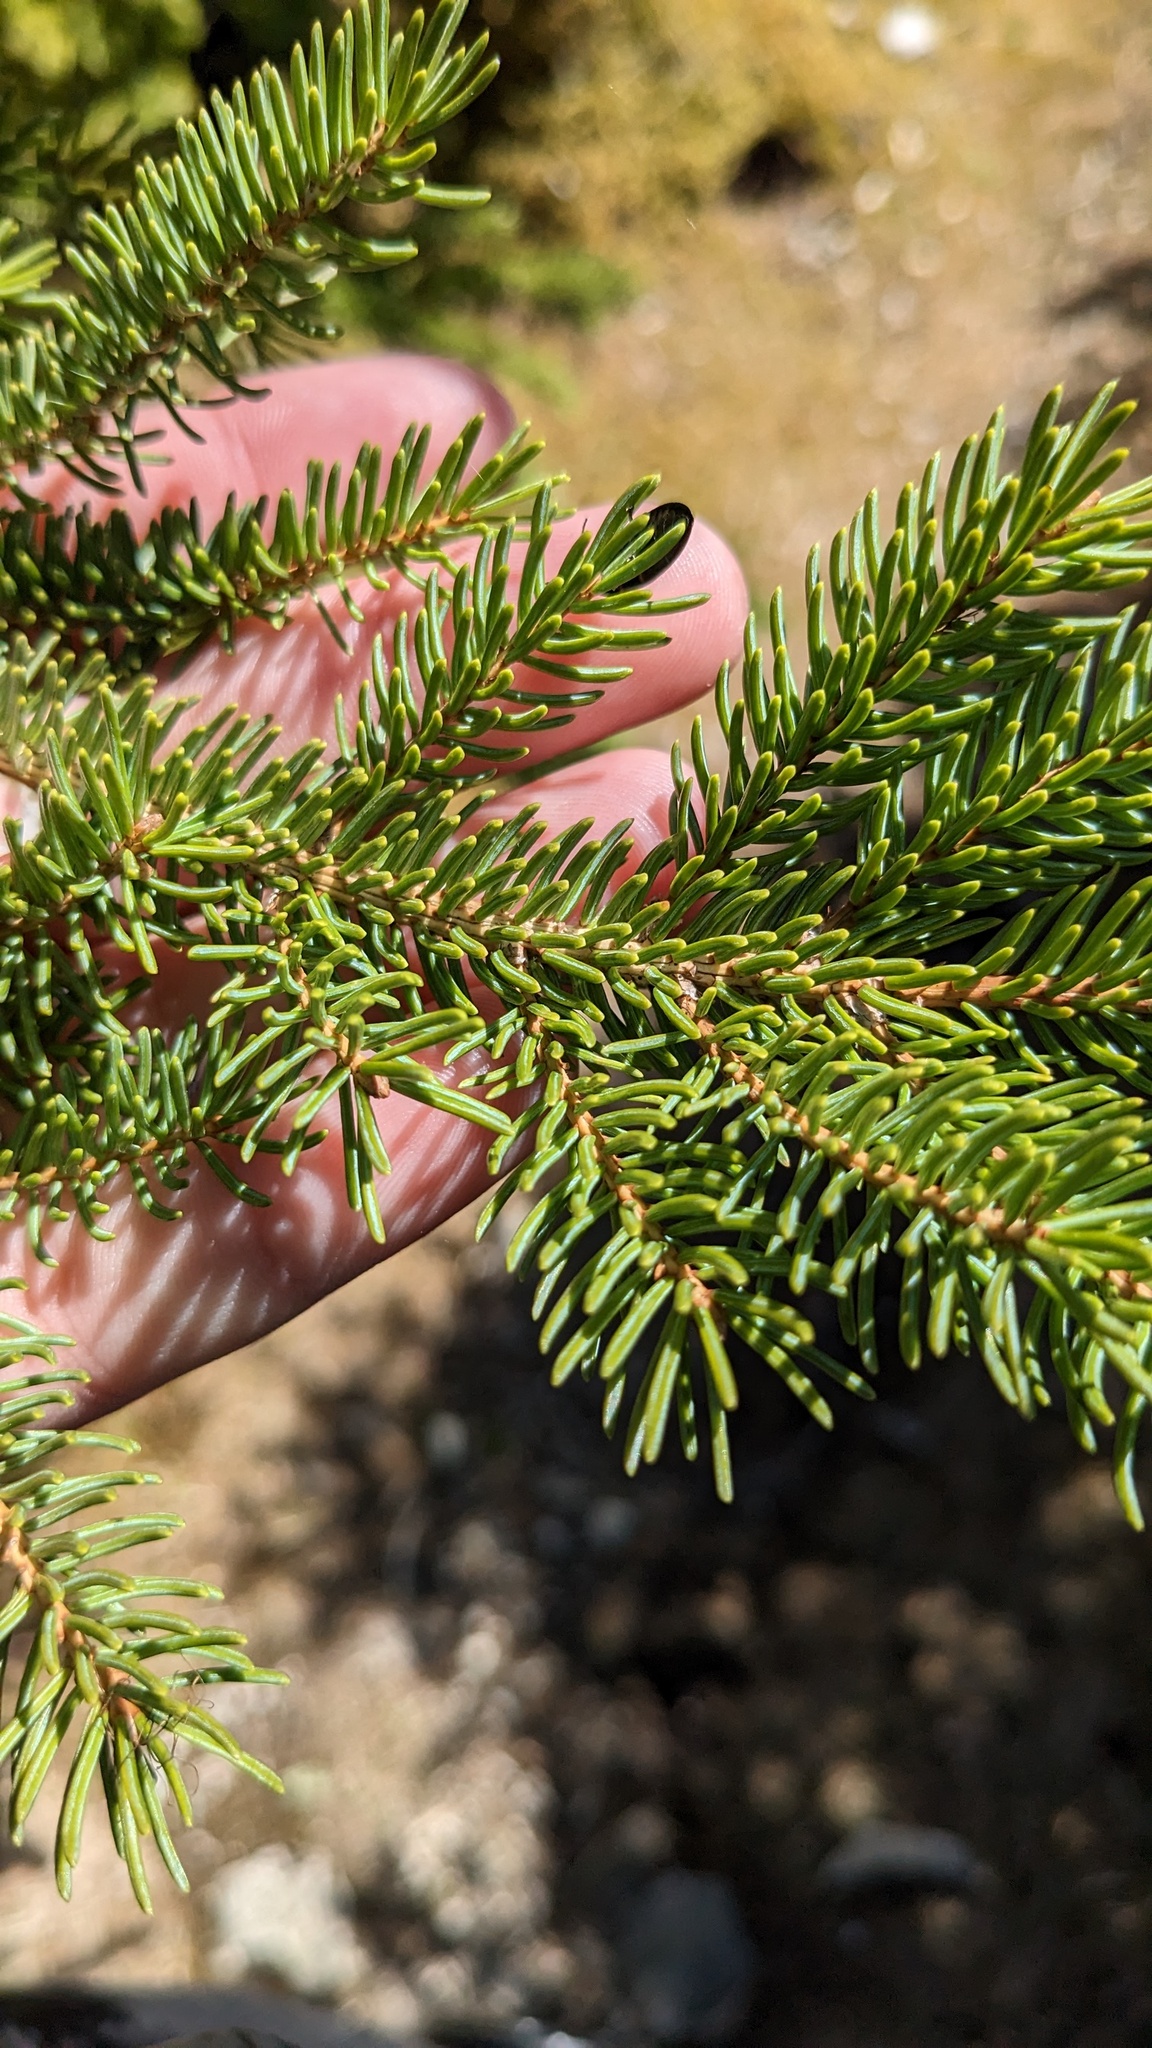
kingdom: Plantae
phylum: Tracheophyta
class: Pinopsida
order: Pinales
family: Pinaceae
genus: Picea
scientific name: Picea glauca
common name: White spruce
